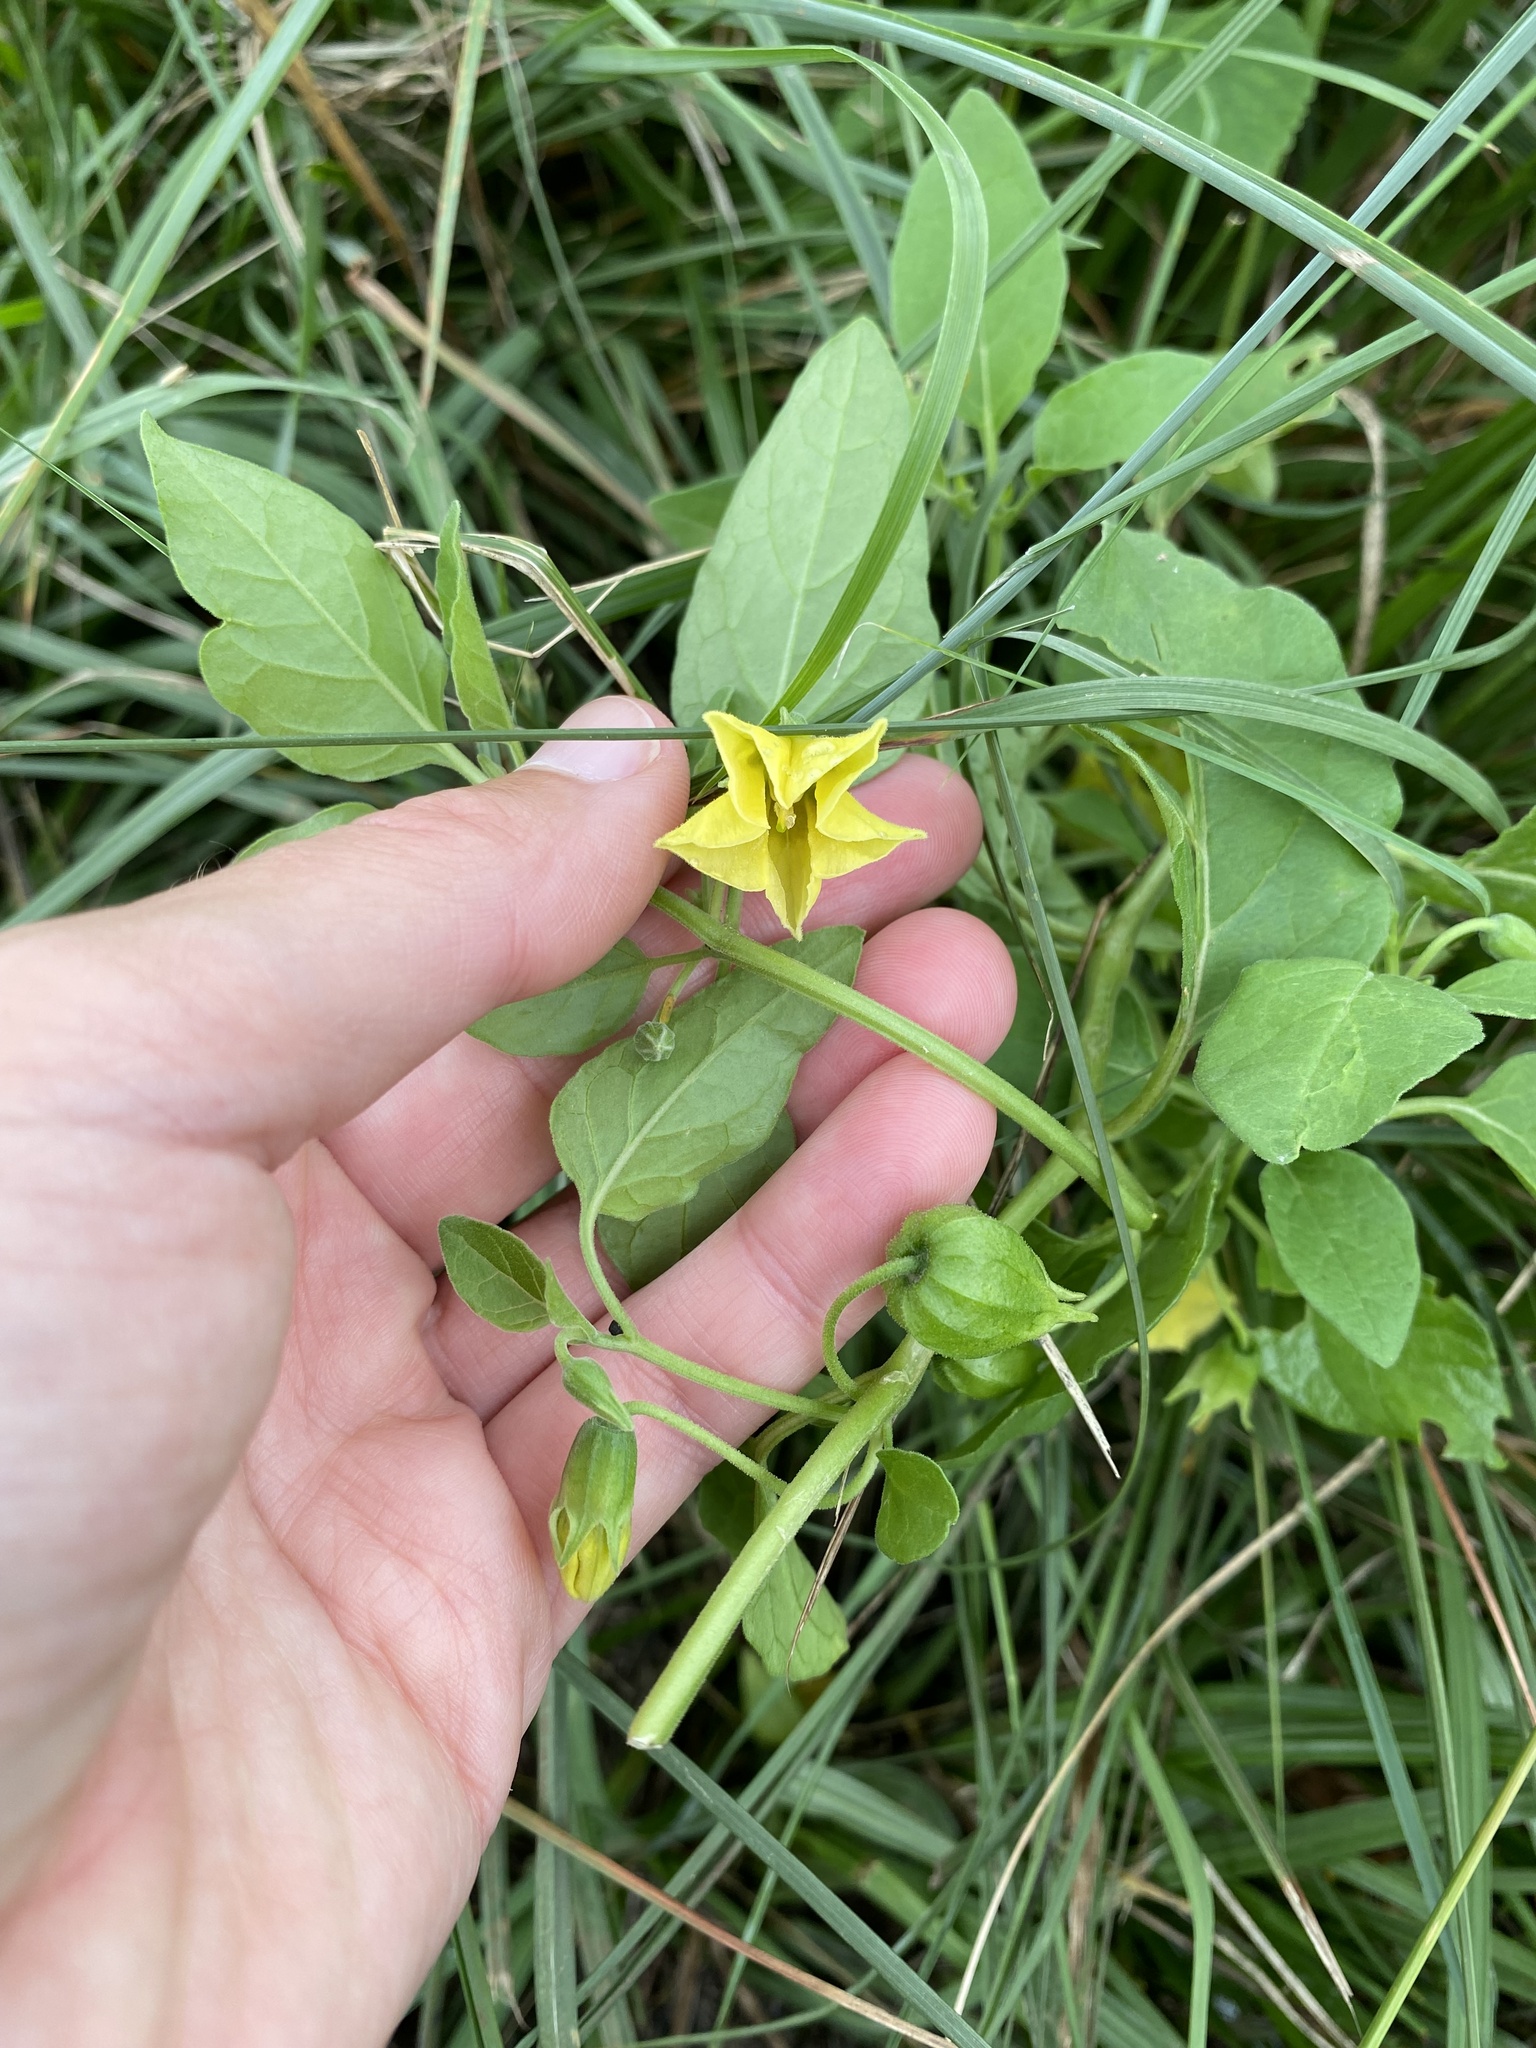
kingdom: Plantae
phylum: Tracheophyta
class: Magnoliopsida
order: Solanales
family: Solanaceae
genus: Physalis
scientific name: Physalis viscosa
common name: Stellate ground-cherry
